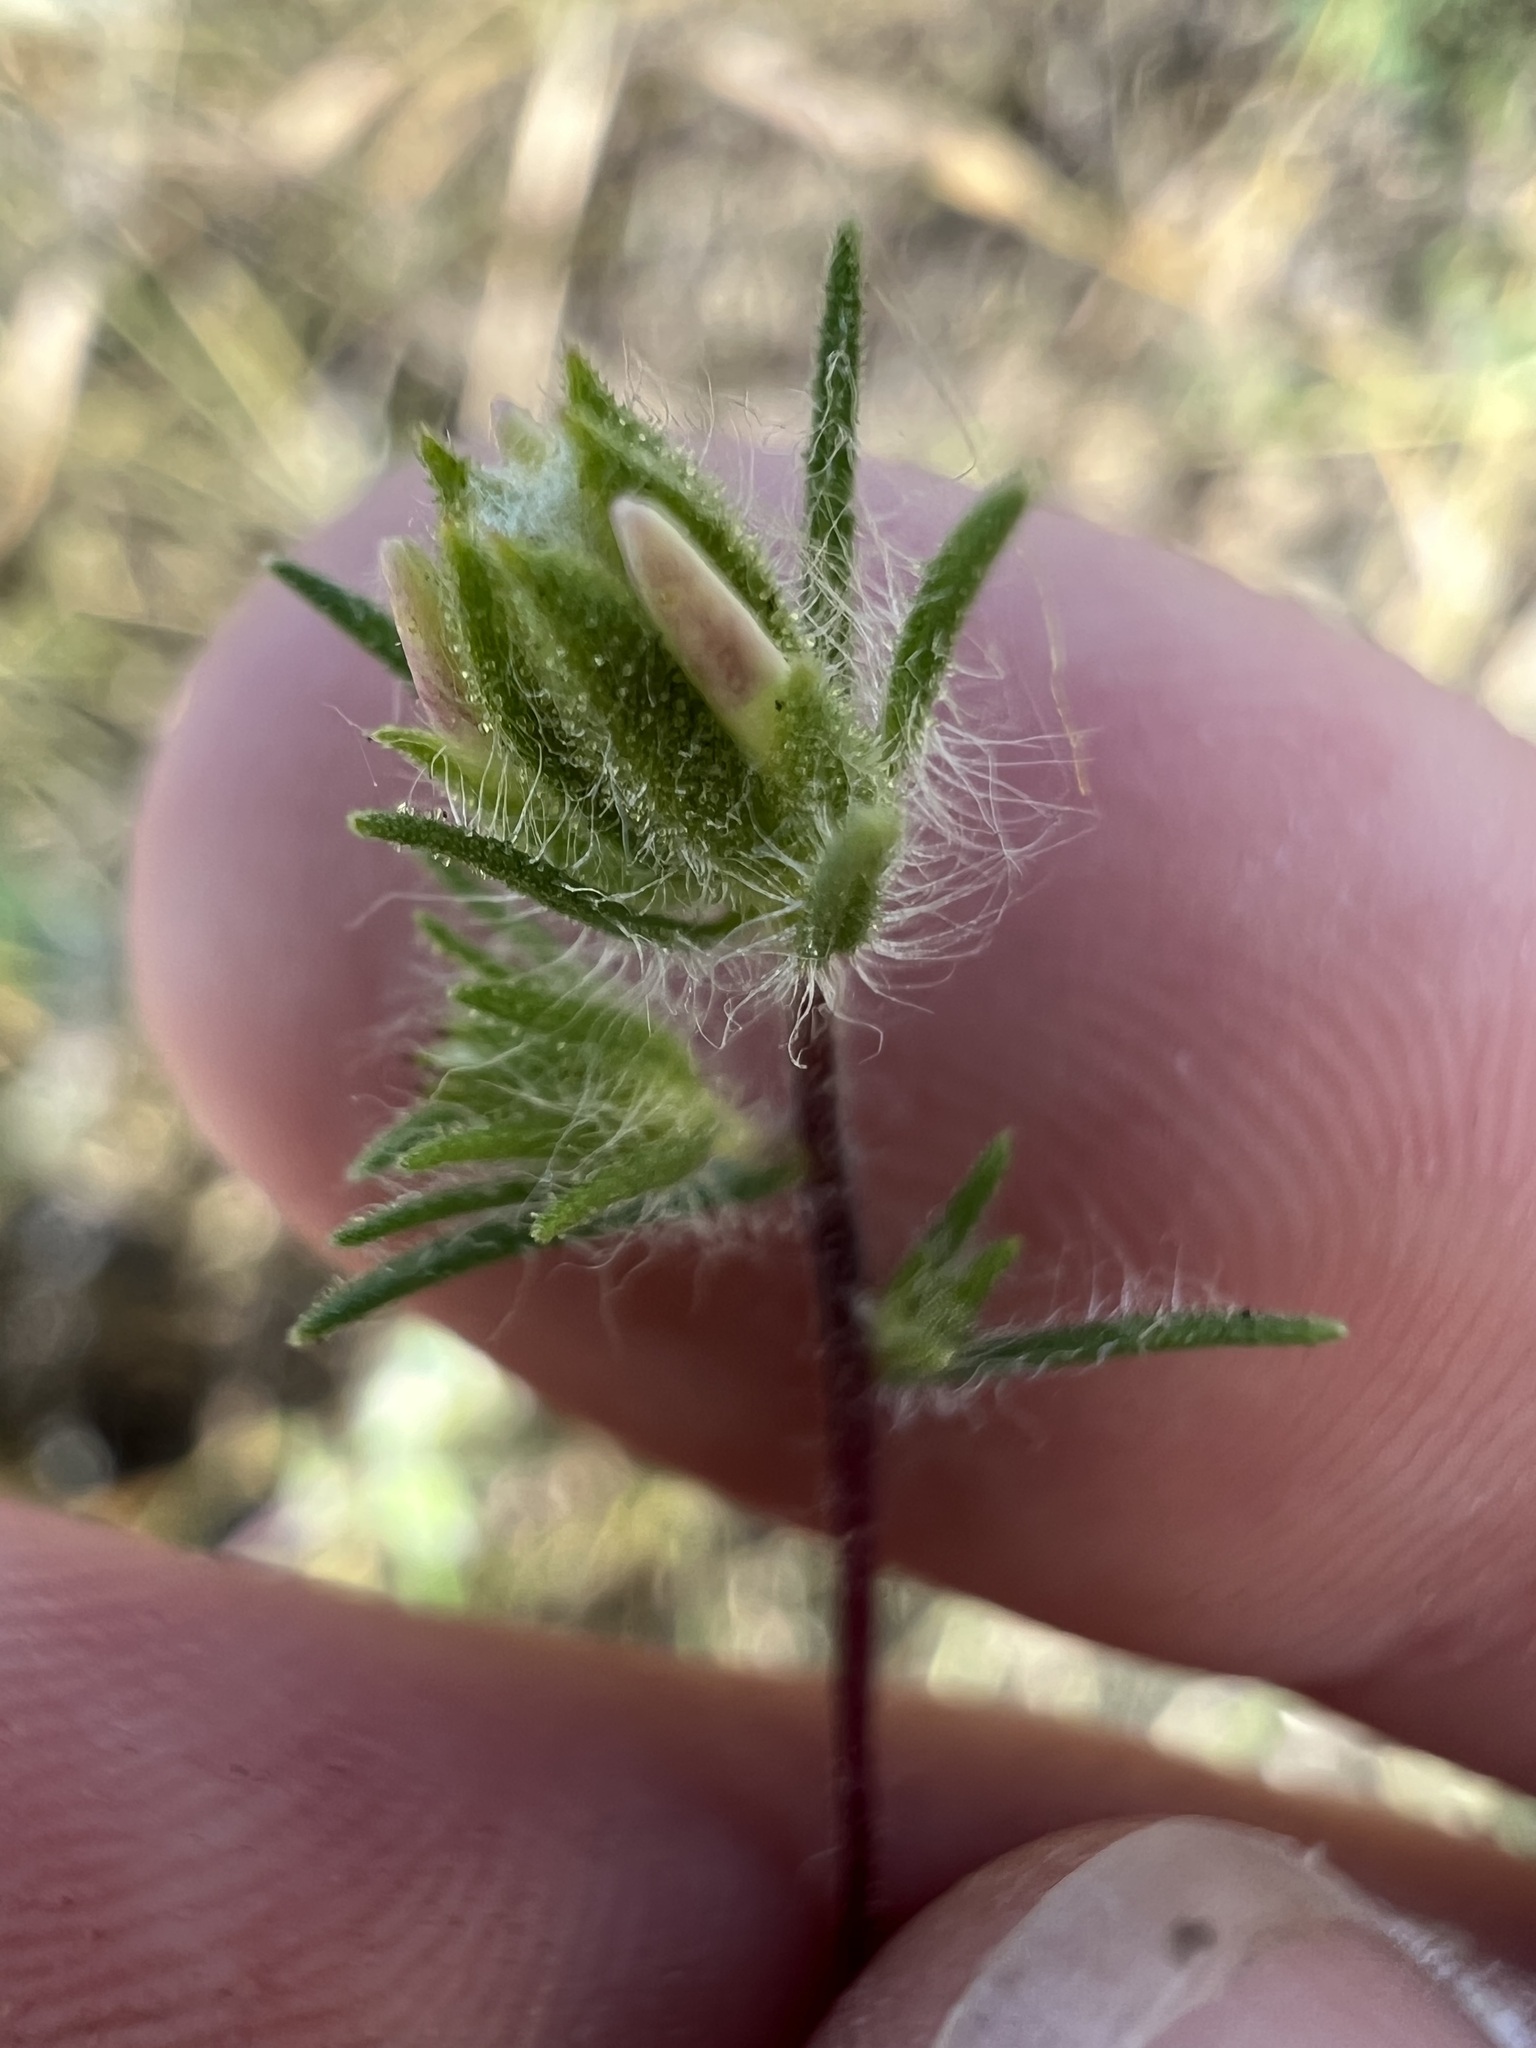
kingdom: Plantae
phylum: Tracheophyta
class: Magnoliopsida
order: Asterales
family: Asteraceae
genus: Osmadenia
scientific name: Osmadenia tenella
